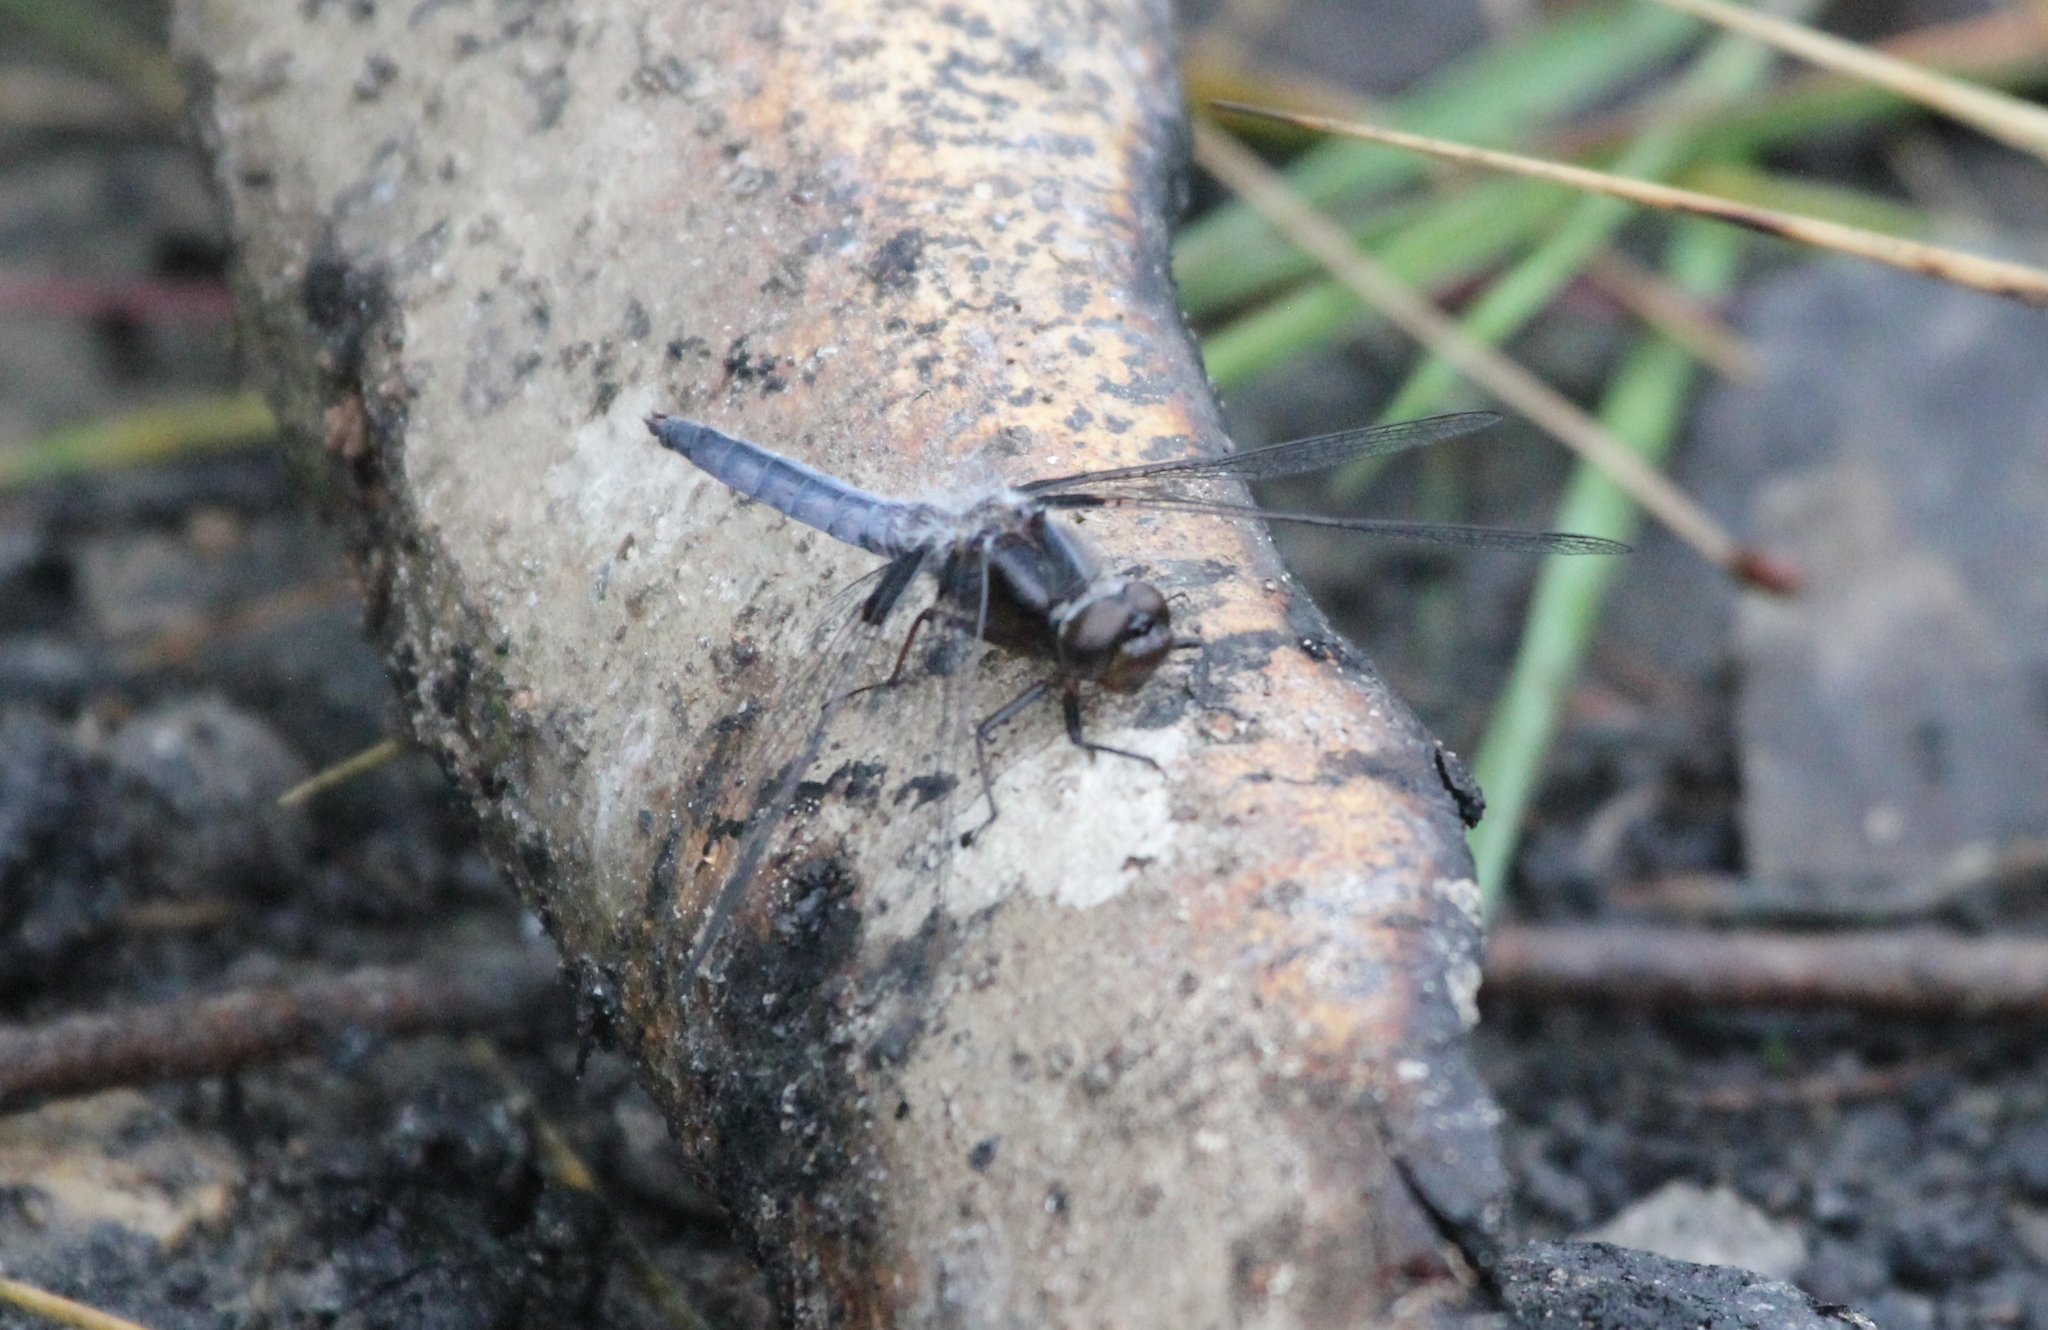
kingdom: Animalia
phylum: Arthropoda
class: Insecta
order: Odonata
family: Libellulidae
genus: Ladona
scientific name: Ladona deplanata
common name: Blue corporal
